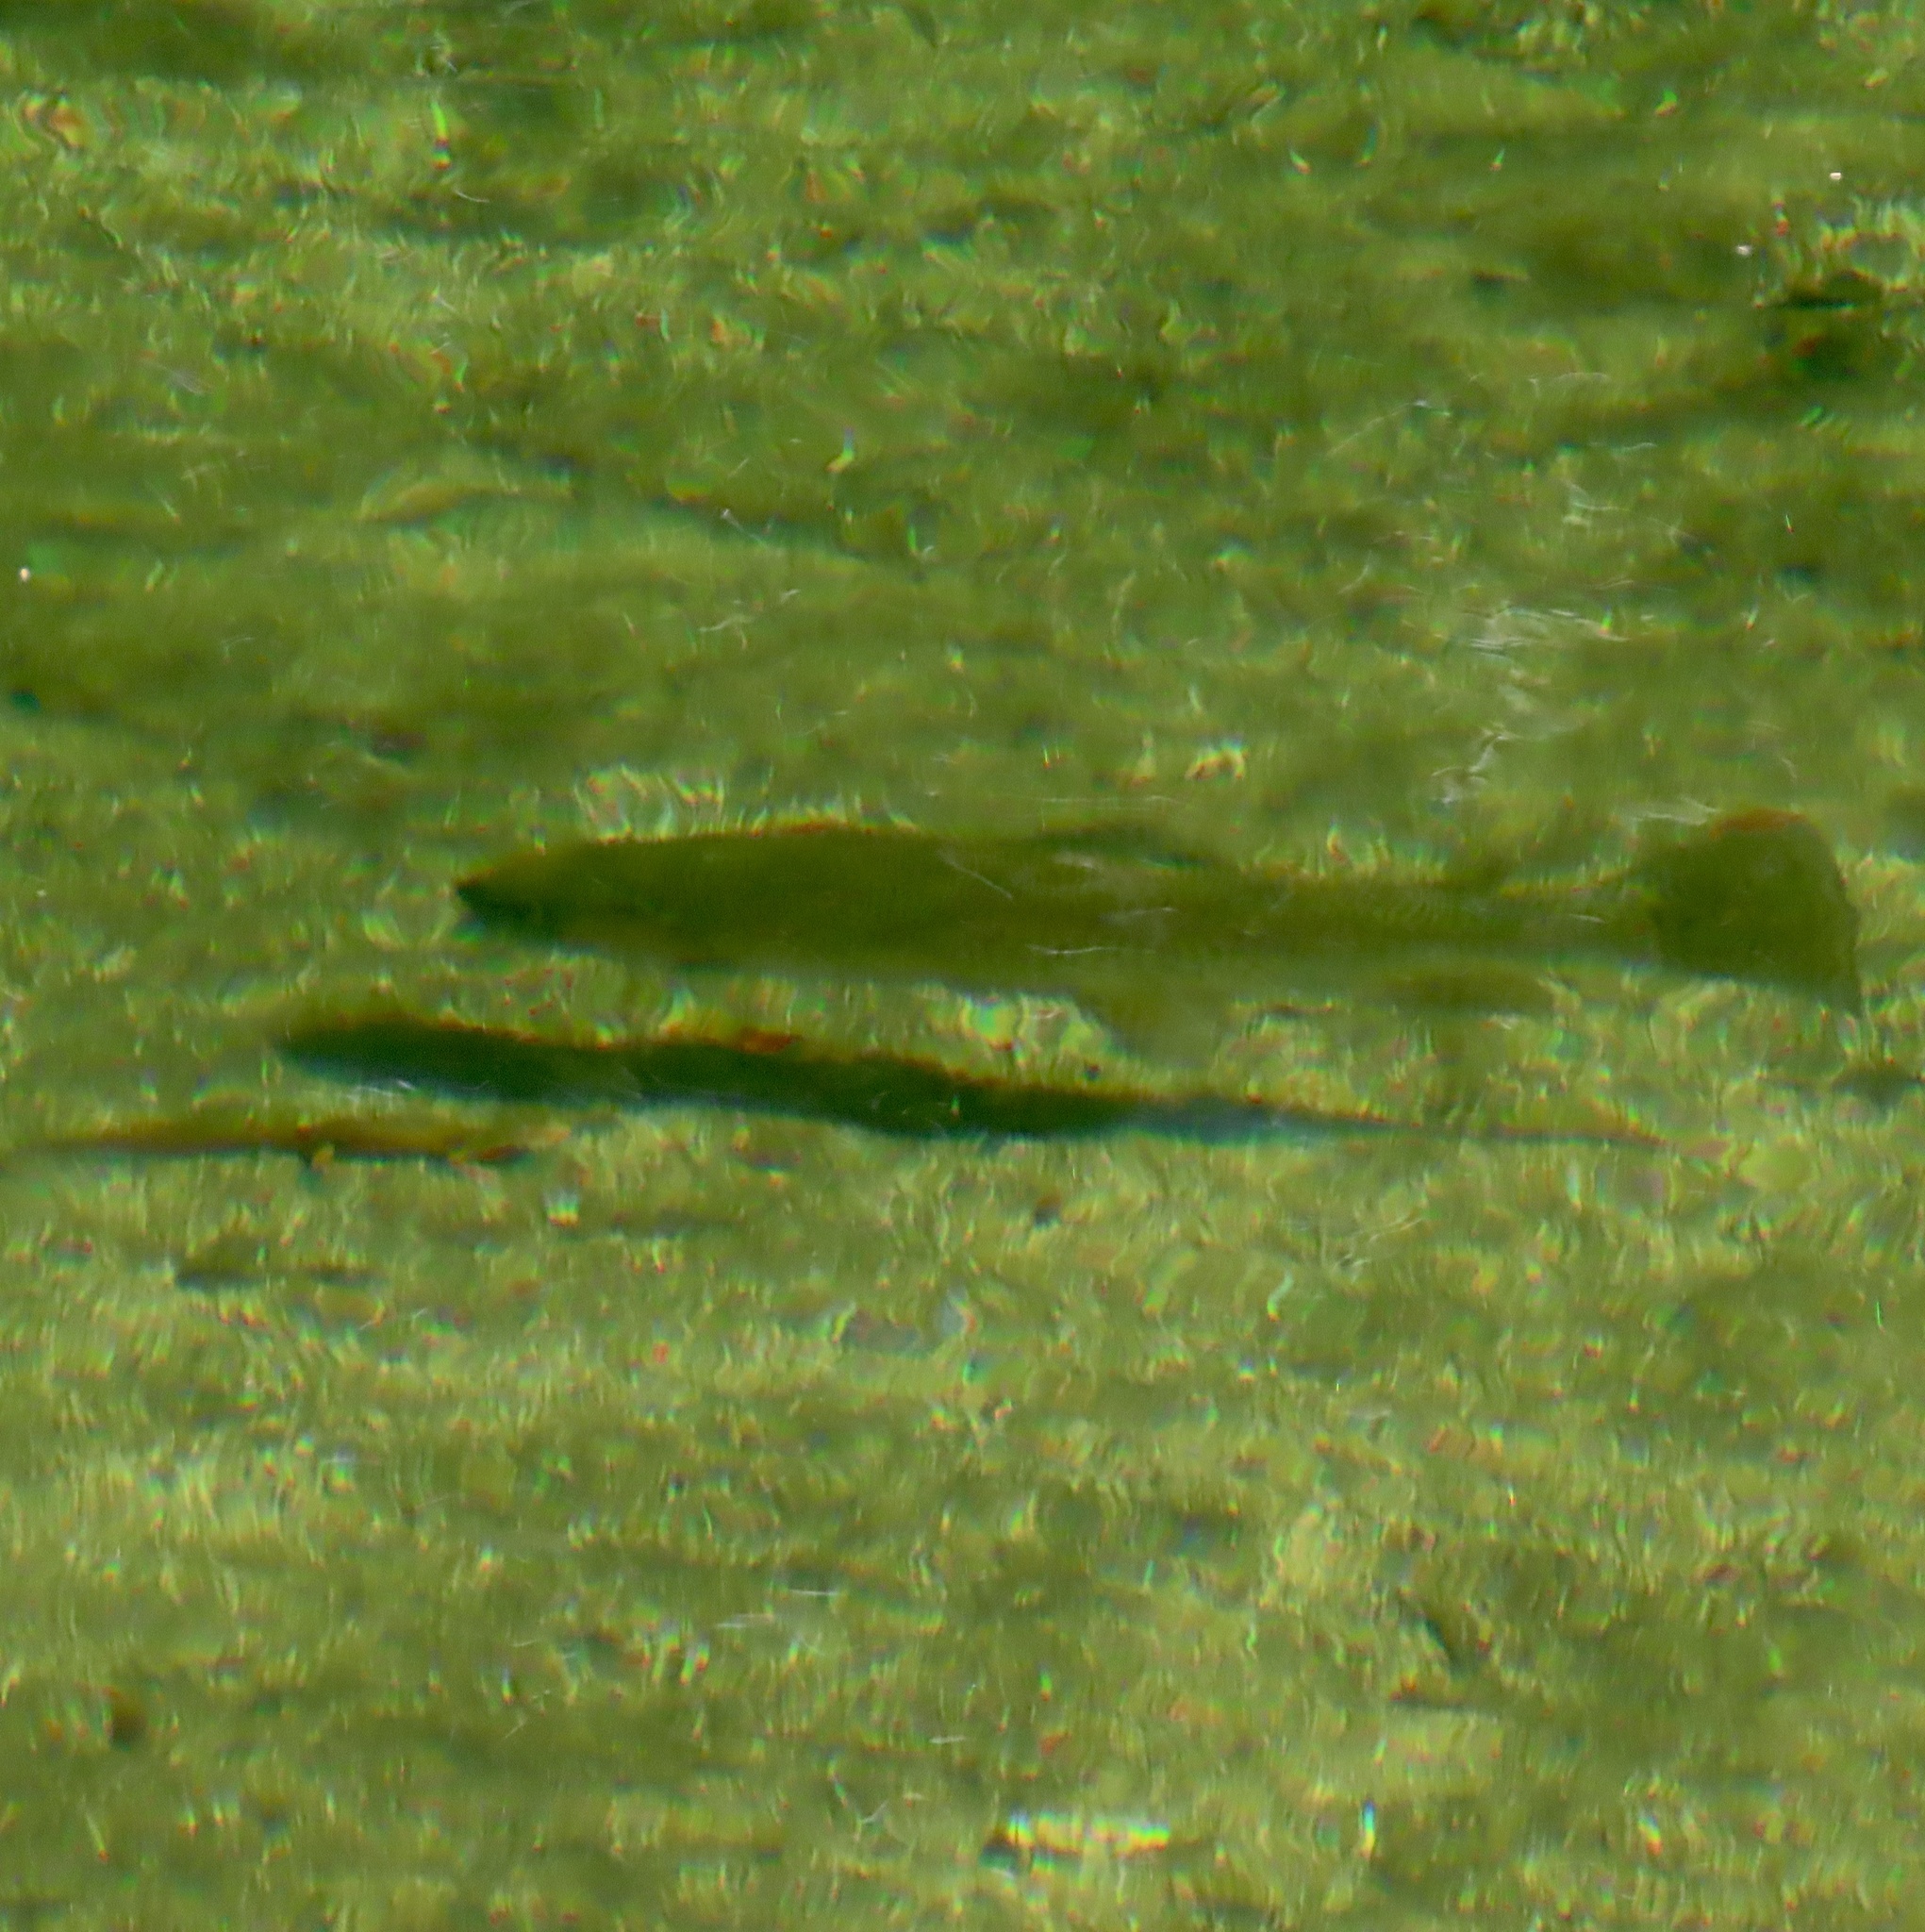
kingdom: Animalia
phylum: Chordata
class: Amphibia
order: Caudata
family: Salamandridae
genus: Taricha
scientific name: Taricha torosa
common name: California newt
